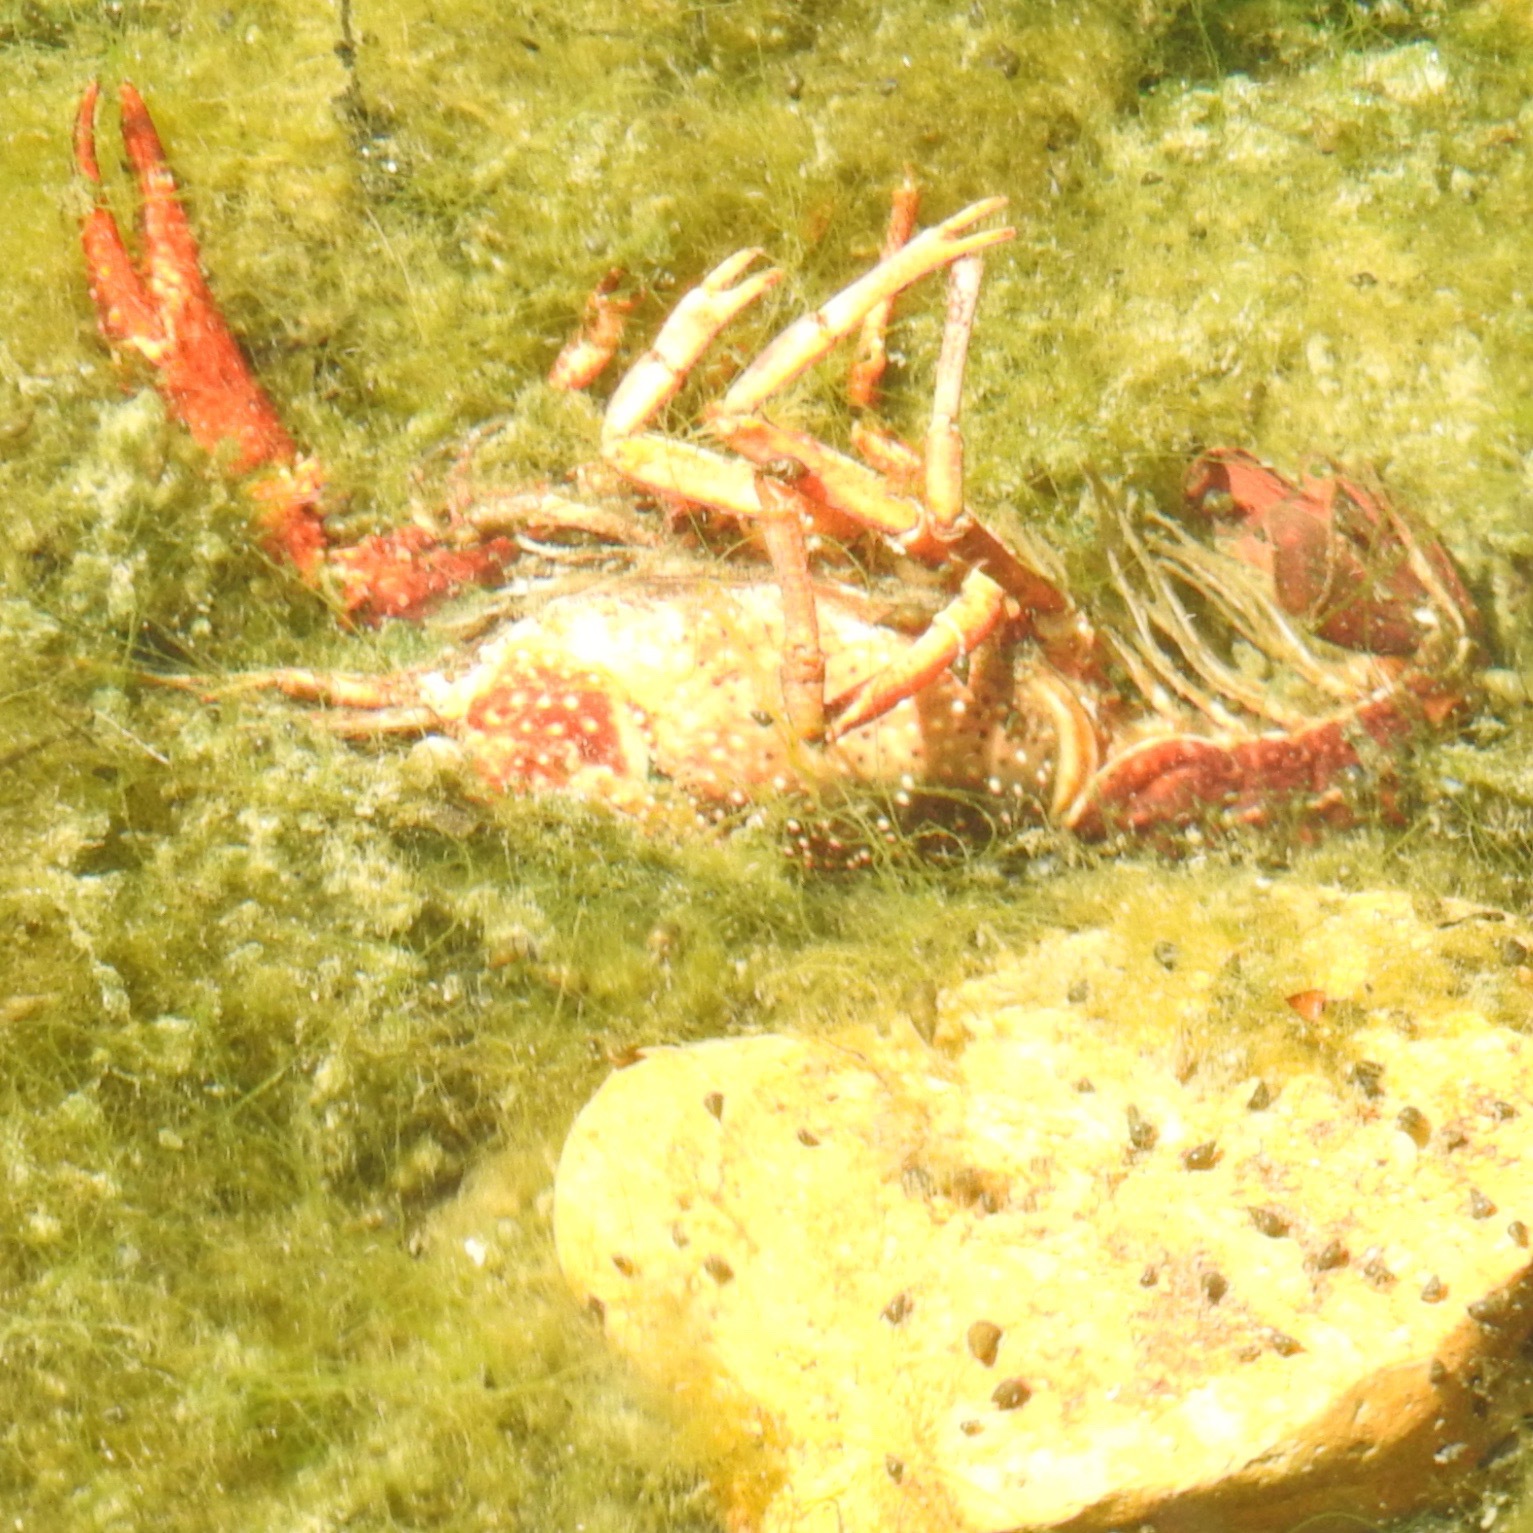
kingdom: Animalia
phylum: Arthropoda
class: Malacostraca
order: Decapoda
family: Cambaridae
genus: Procambarus
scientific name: Procambarus clarkii
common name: Red swamp crayfish
